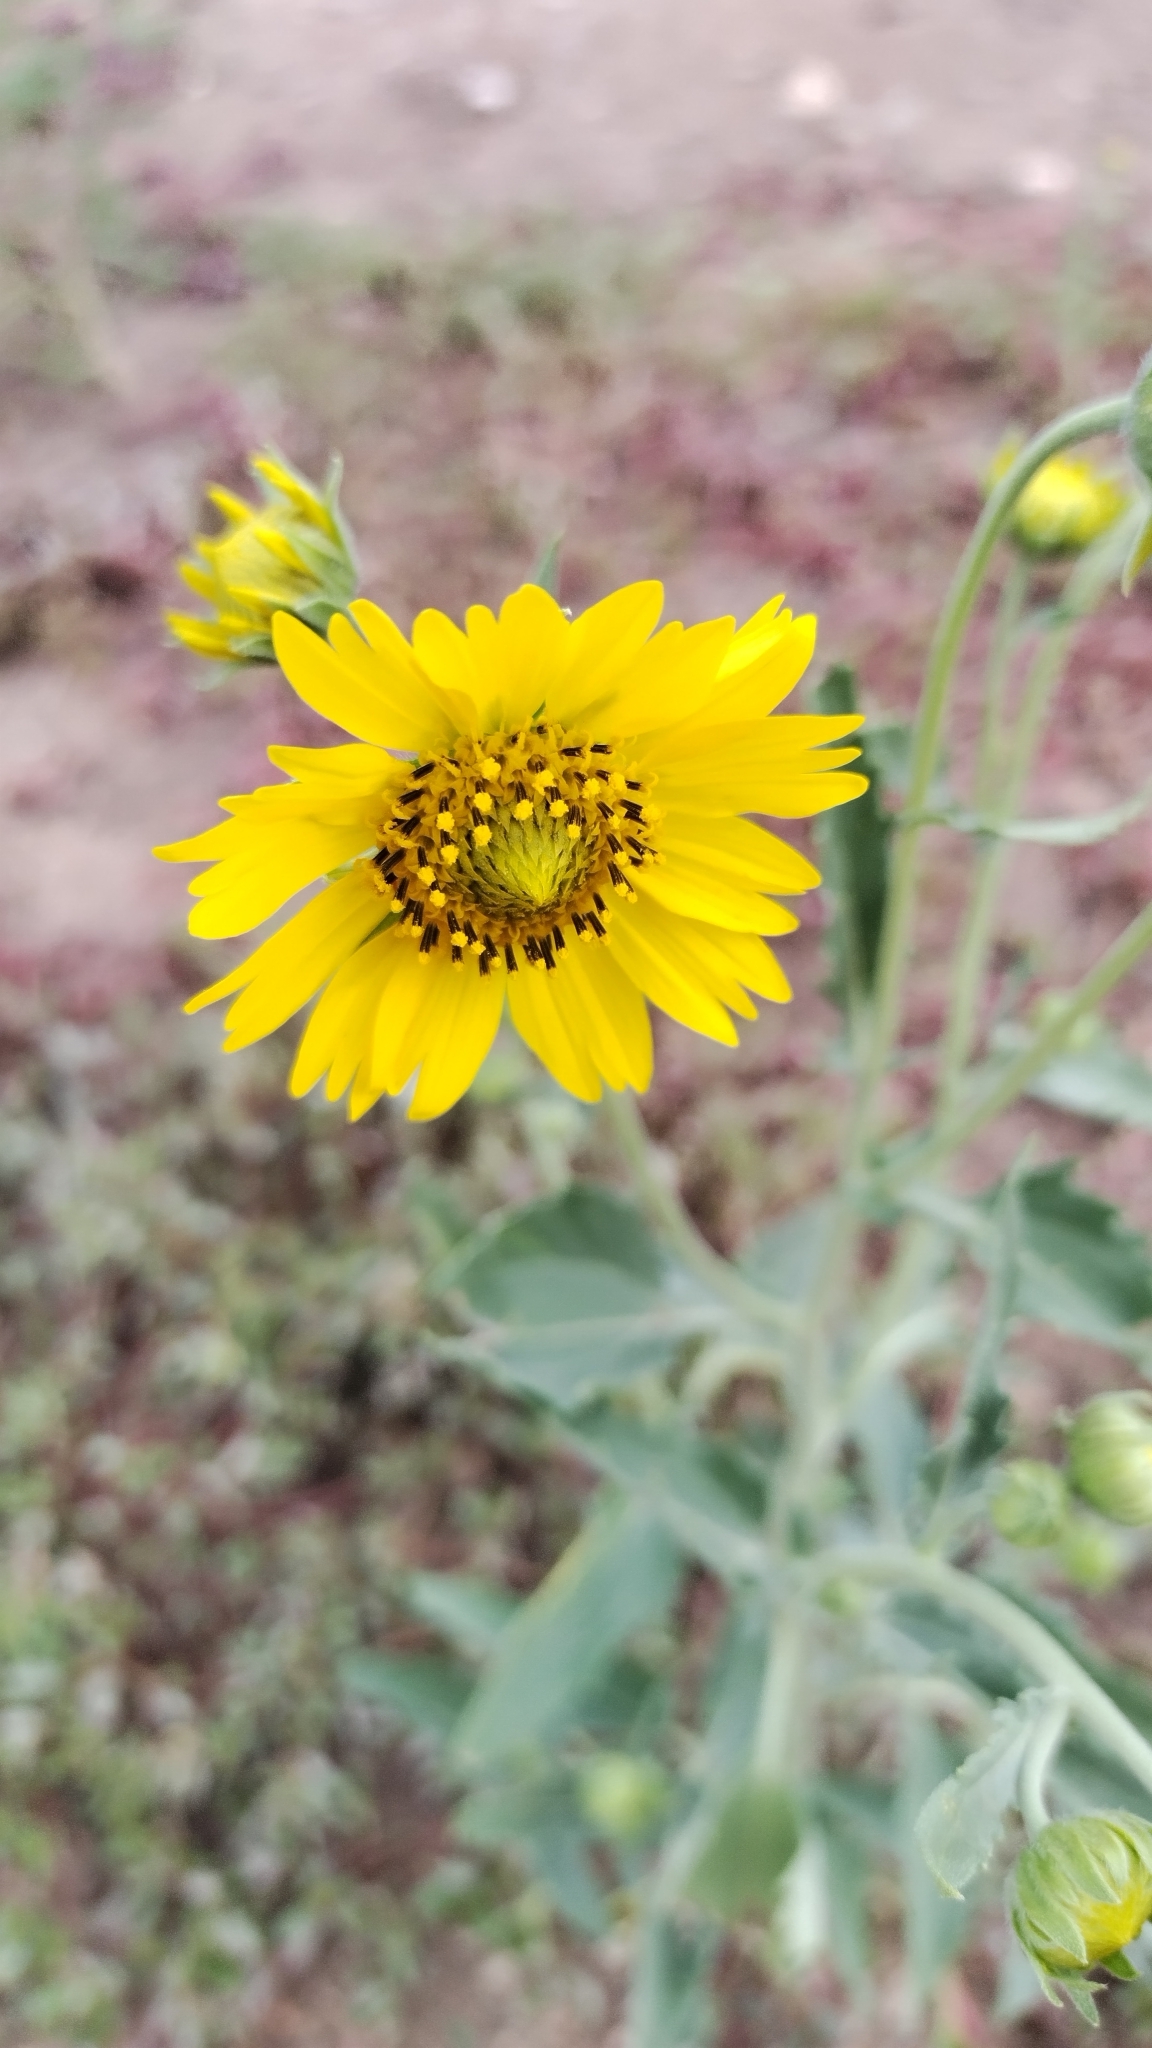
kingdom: Plantae
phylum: Tracheophyta
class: Magnoliopsida
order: Asterales
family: Asteraceae
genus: Verbesina
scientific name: Verbesina encelioides
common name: Golden crownbeard
